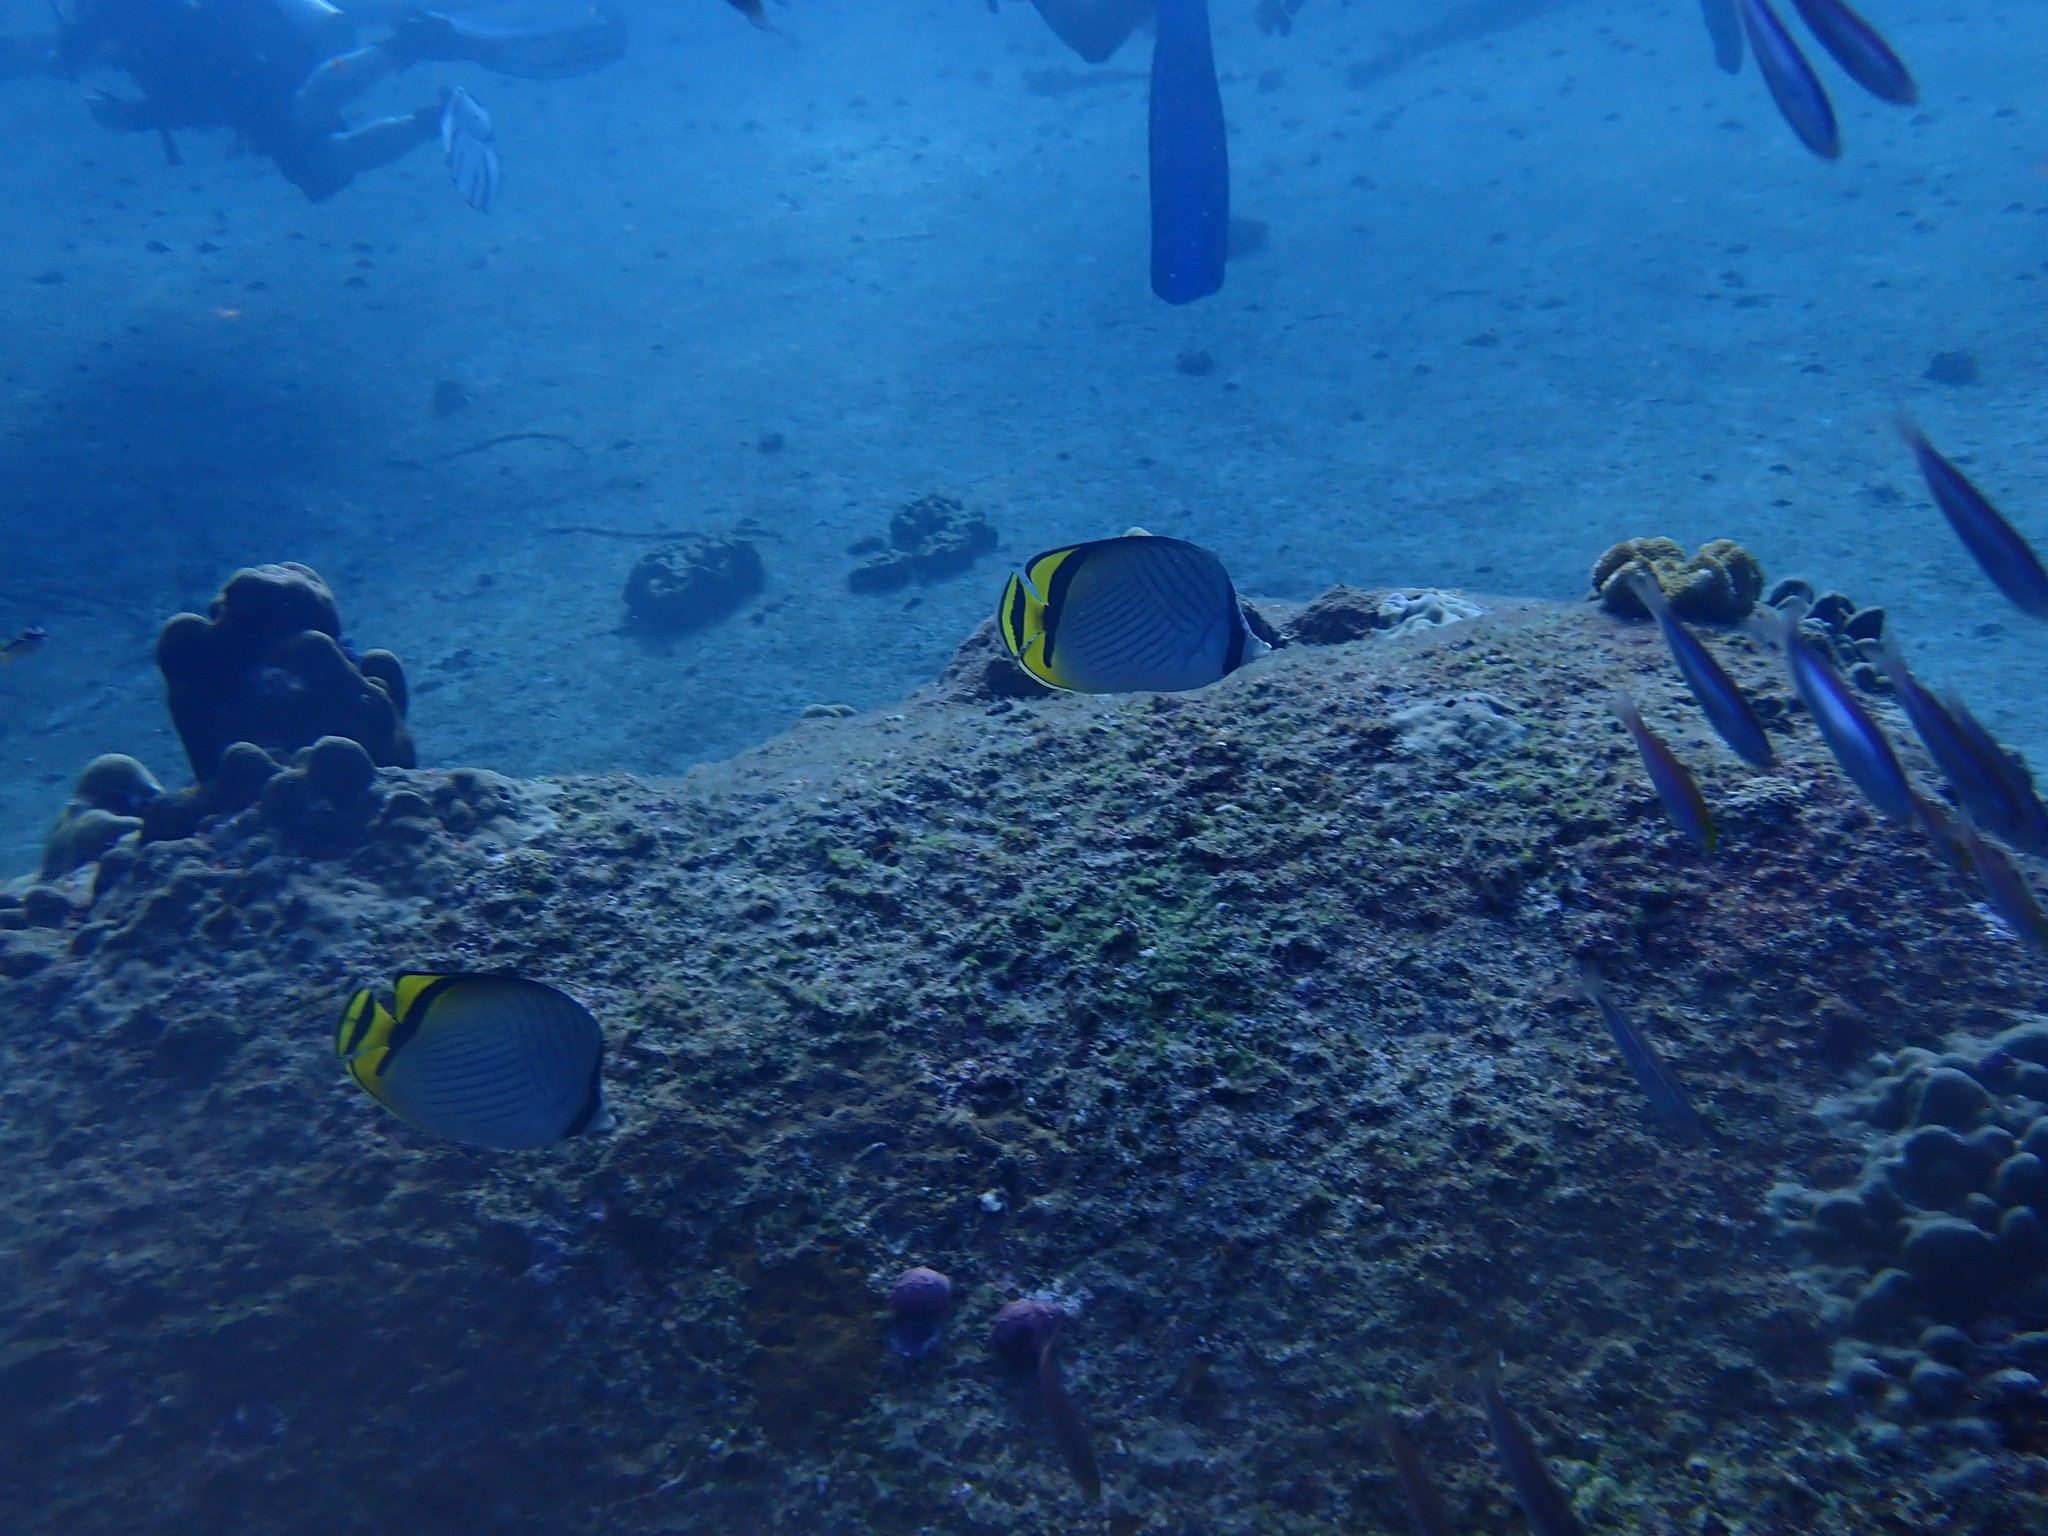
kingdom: Animalia
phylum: Chordata
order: Perciformes
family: Chaetodontidae
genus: Chaetodon
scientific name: Chaetodon vagabundus
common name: Vagabond butterflyfish
